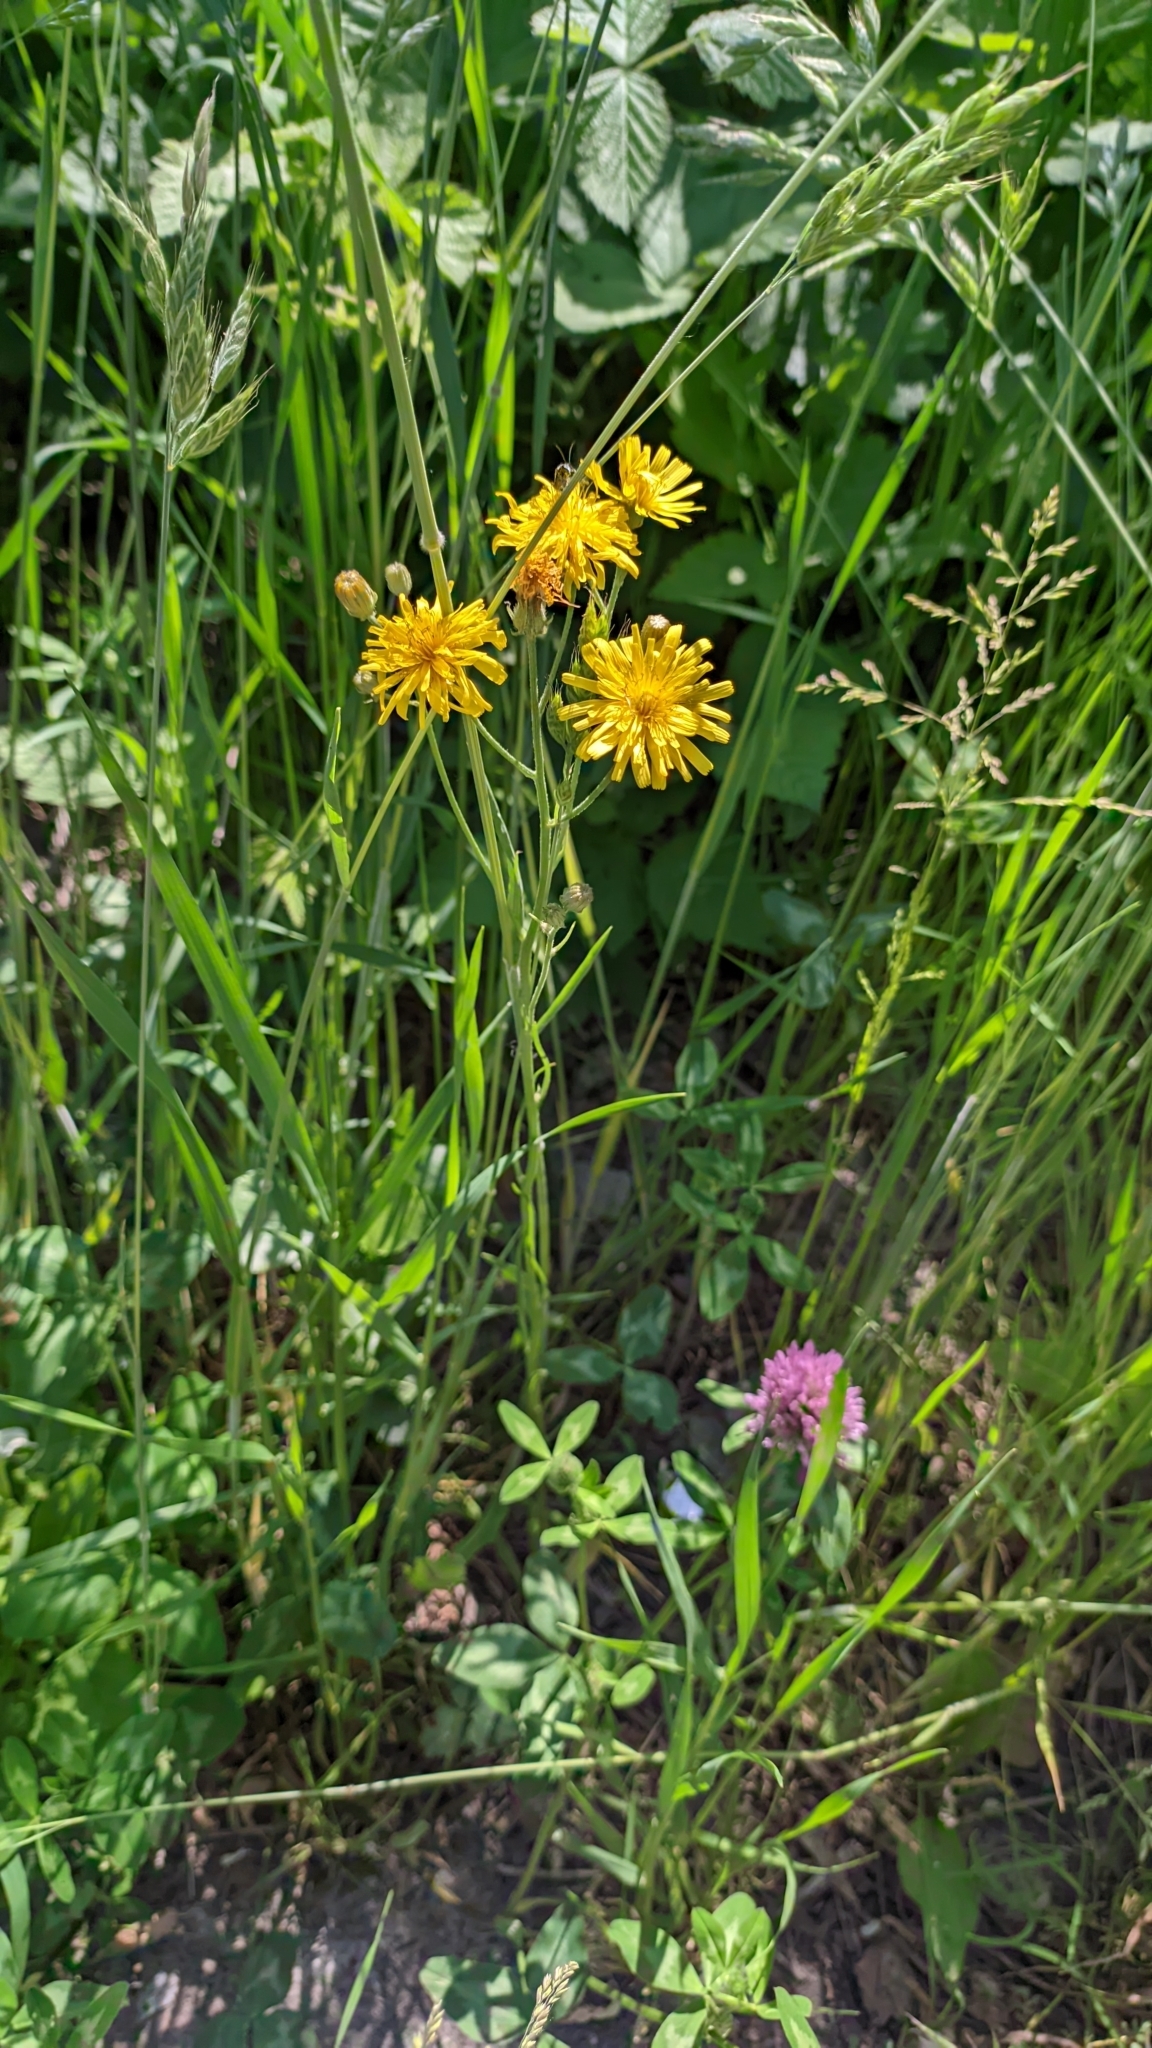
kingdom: Plantae
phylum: Tracheophyta
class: Magnoliopsida
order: Asterales
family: Asteraceae
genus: Crepis
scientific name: Crepis tectorum
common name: Narrow-leaved hawk's-beard
